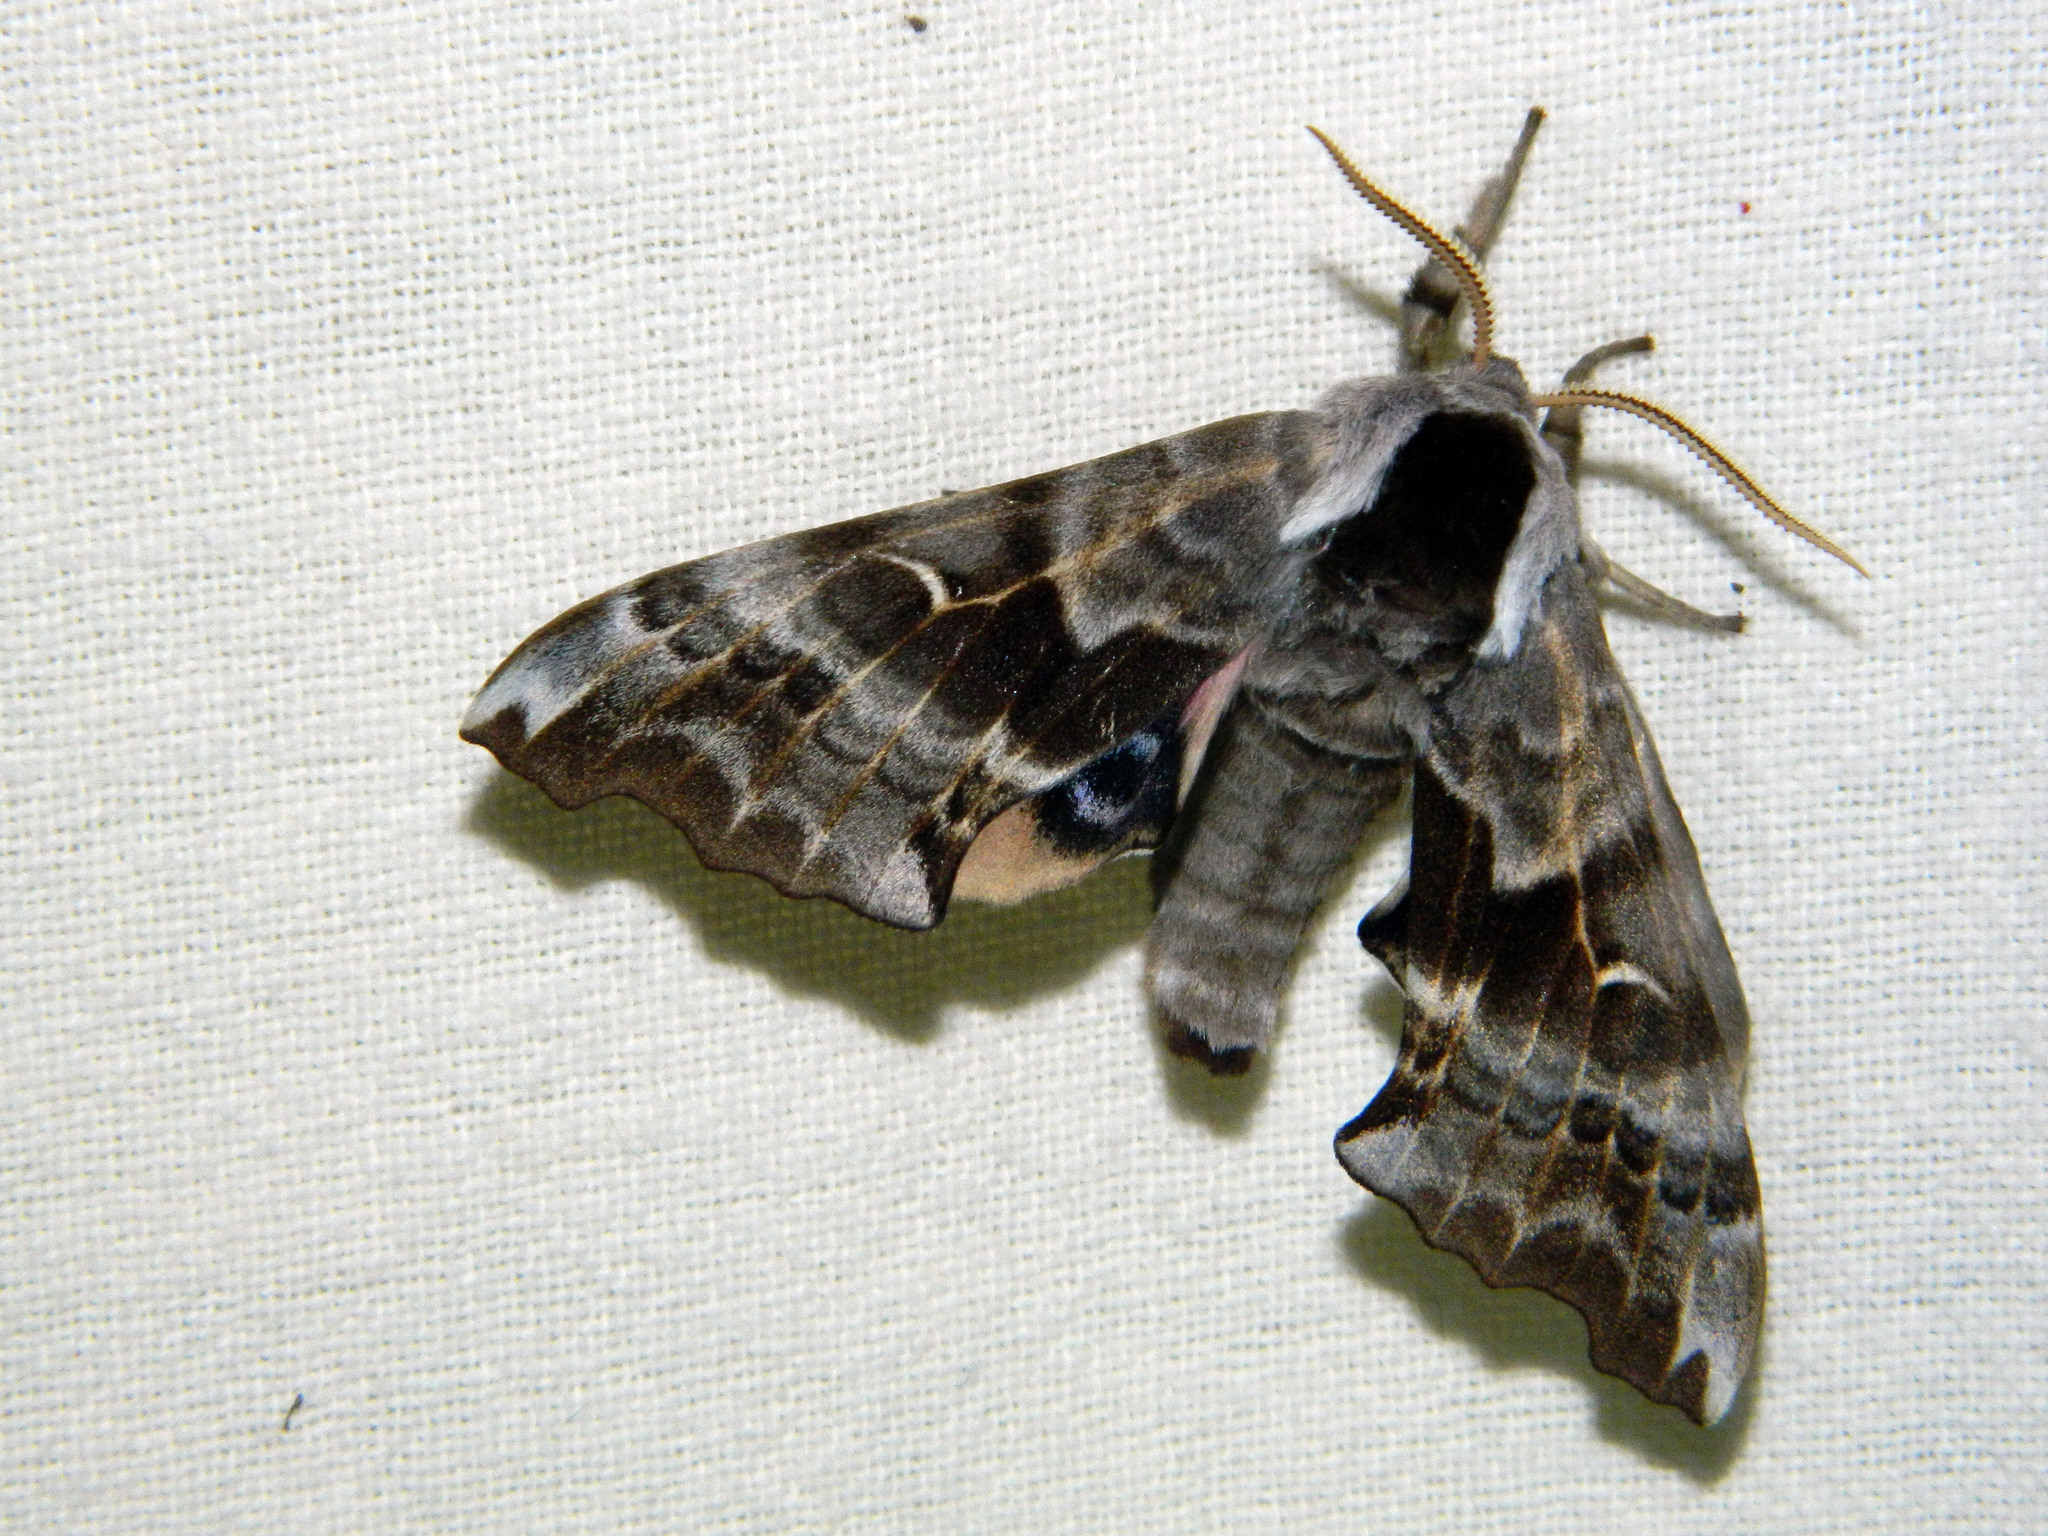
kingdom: Animalia
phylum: Arthropoda
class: Insecta
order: Lepidoptera
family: Sphingidae
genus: Smerinthus
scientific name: Smerinthus cerisyi
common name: Cerisy's sphinx moth
